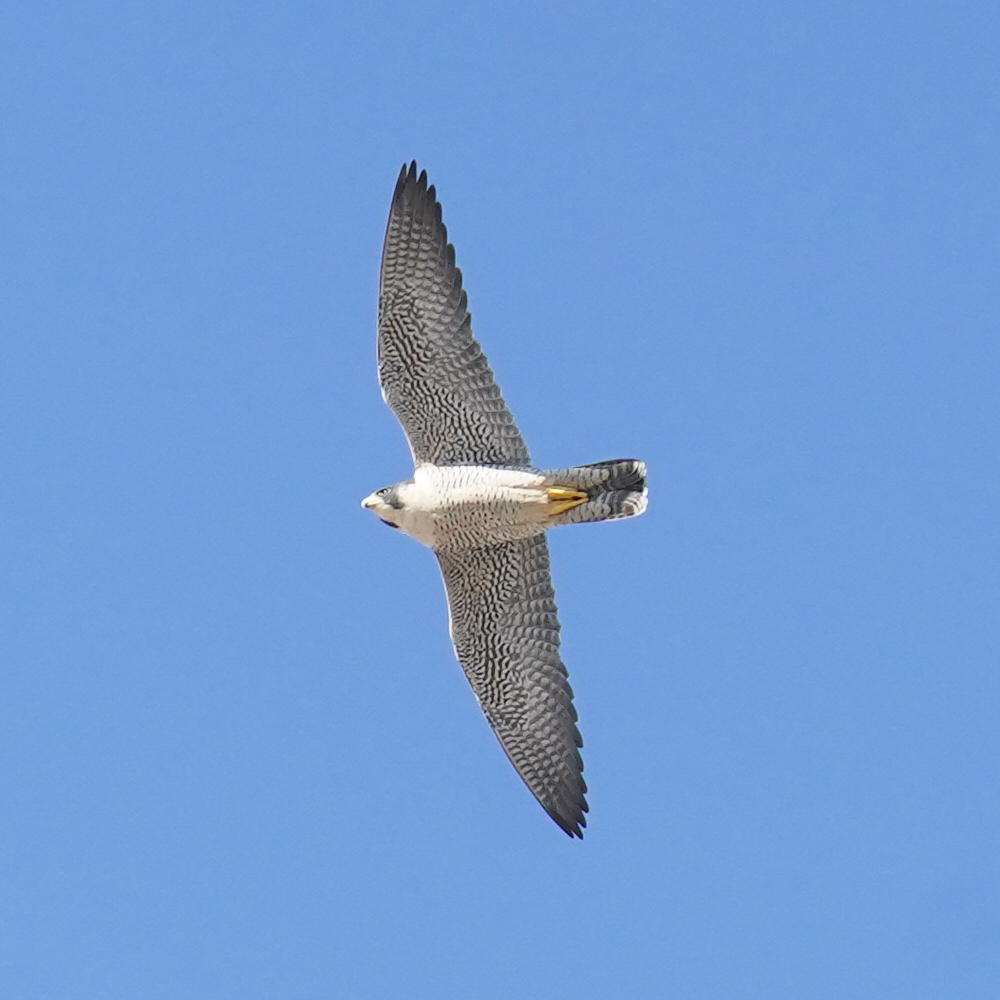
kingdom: Animalia
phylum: Chordata
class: Aves
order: Falconiformes
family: Falconidae
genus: Falco
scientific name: Falco peregrinus
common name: Peregrine falcon
